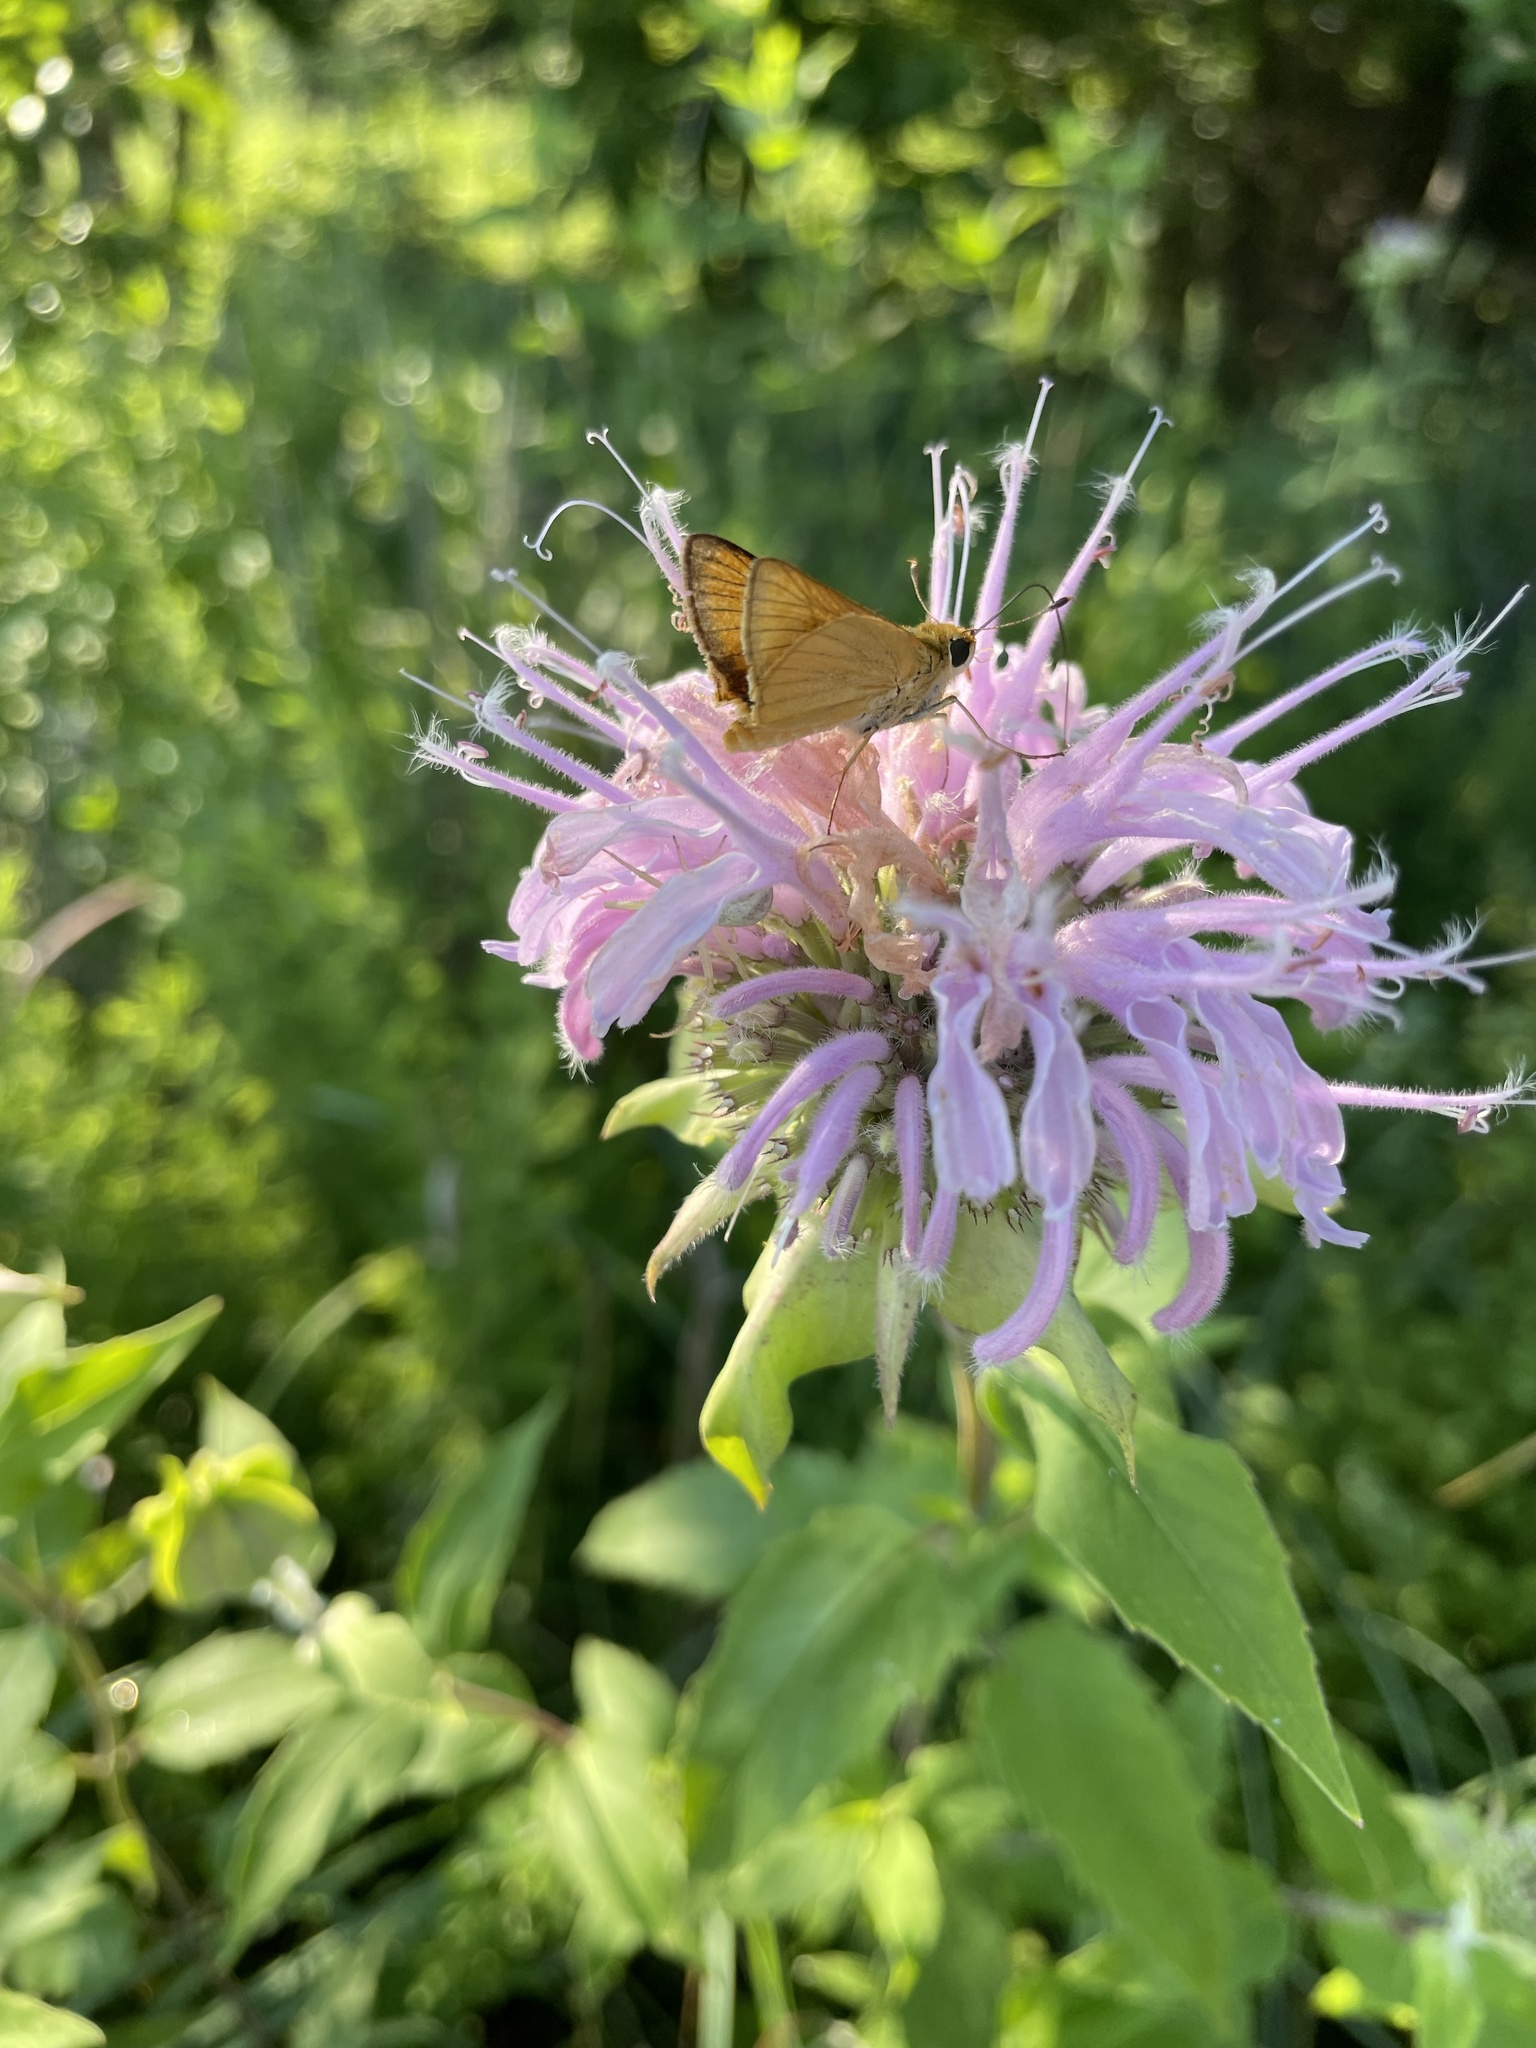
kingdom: Animalia
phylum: Arthropoda
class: Insecta
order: Lepidoptera
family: Hesperiidae
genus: Atrytone
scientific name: Atrytone delaware
